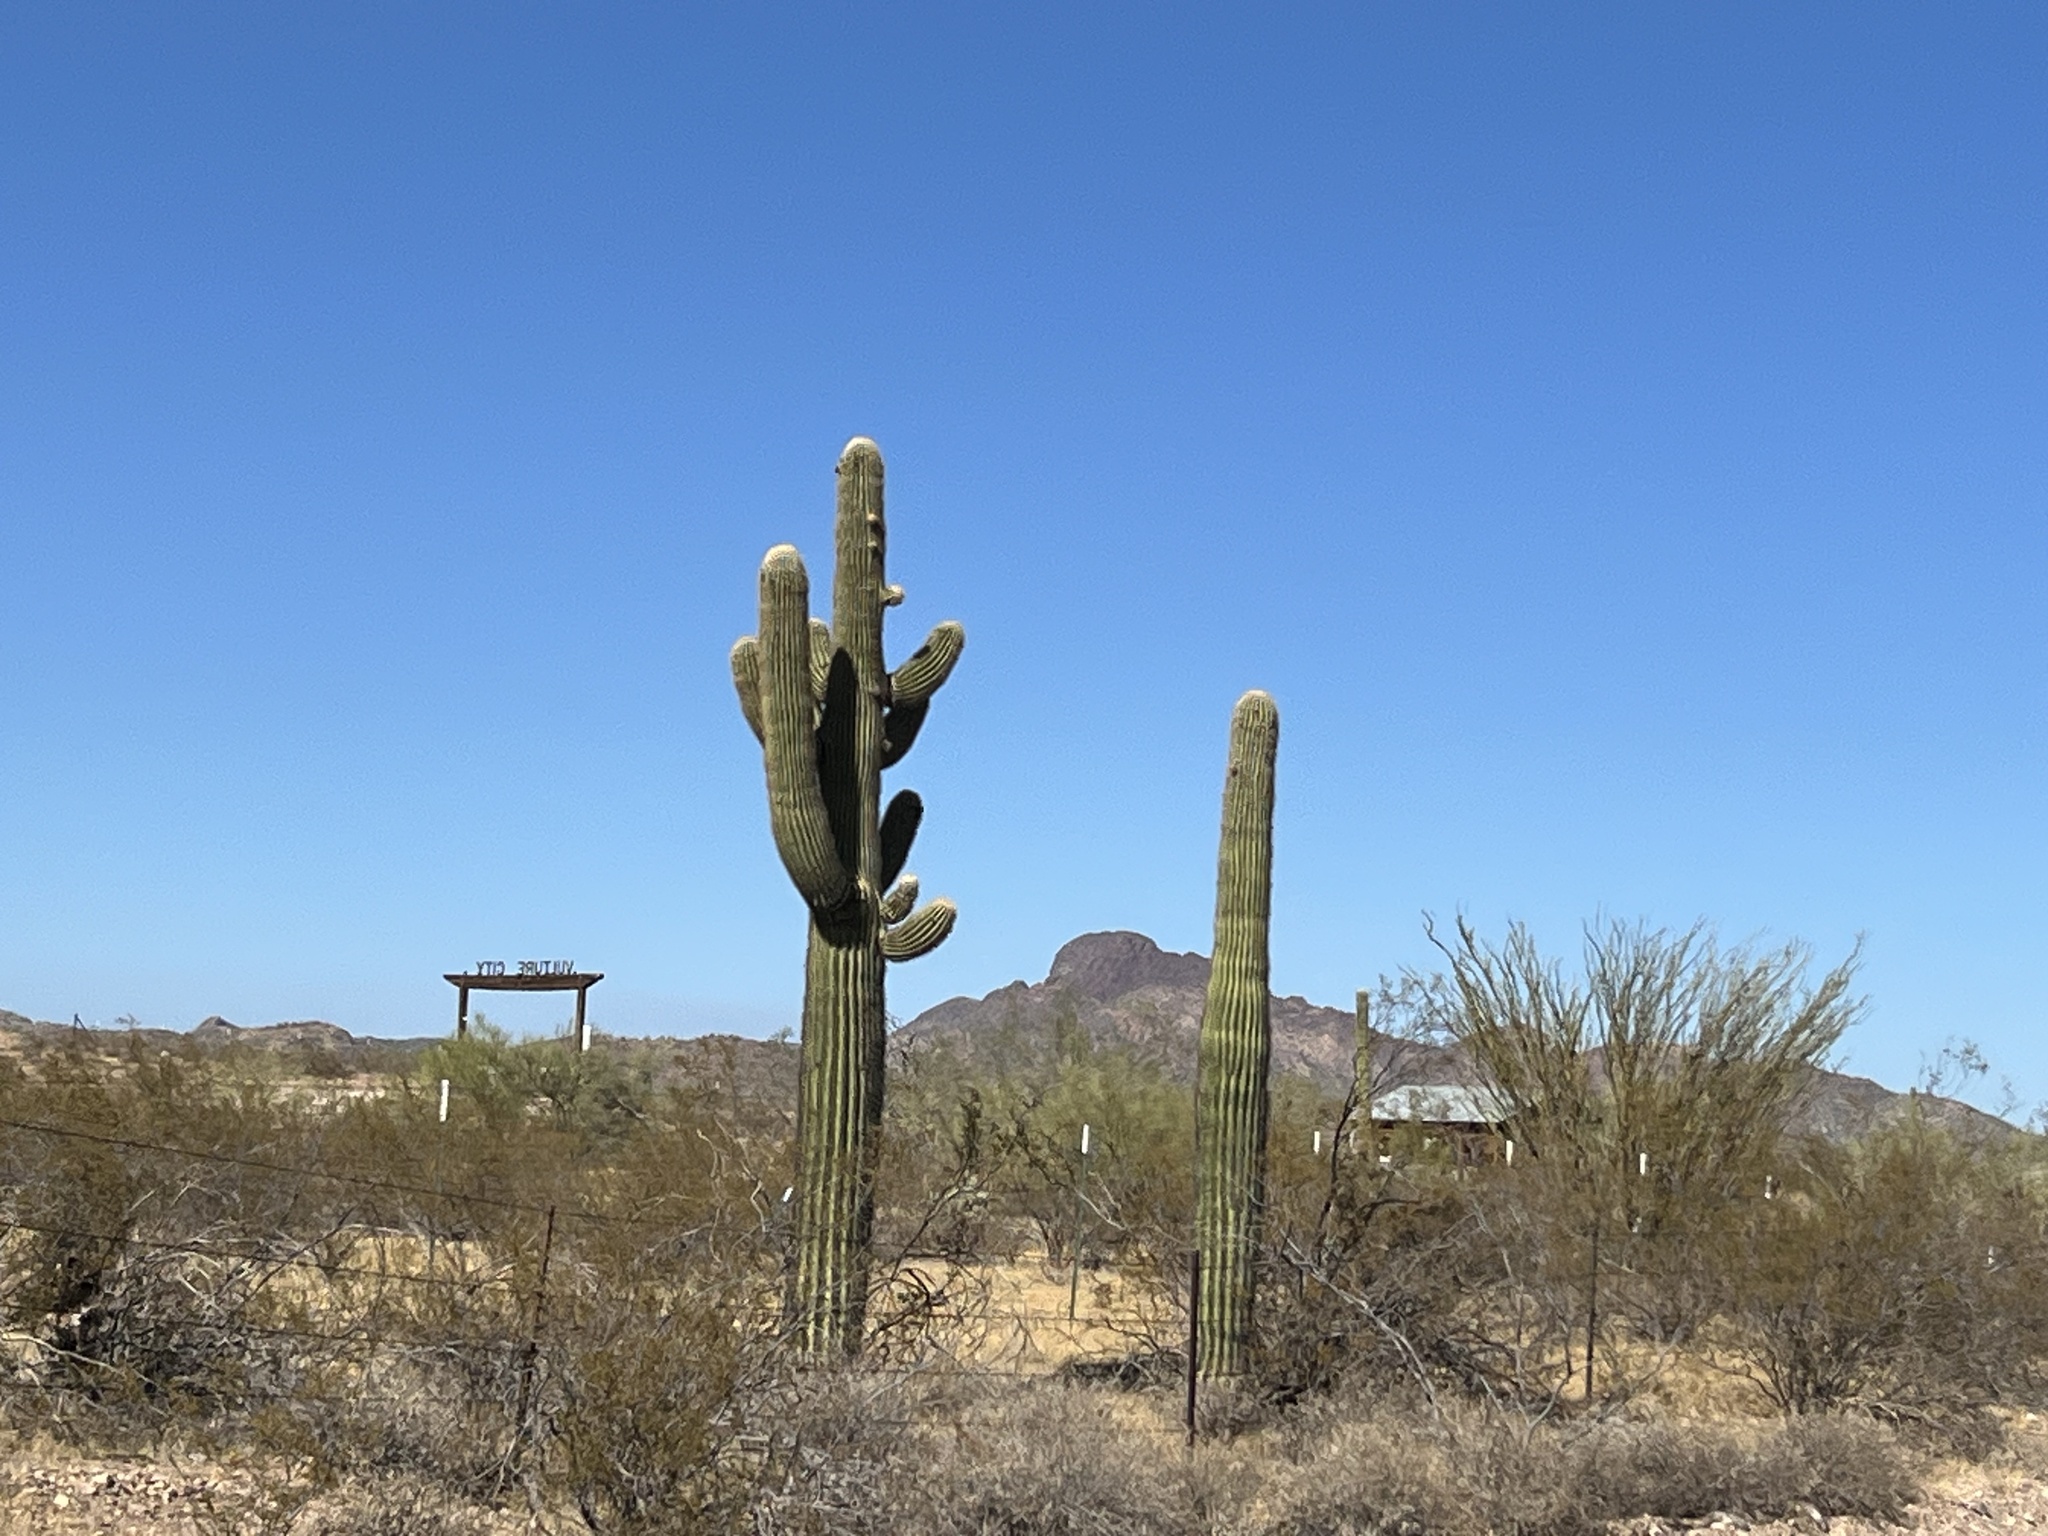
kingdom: Plantae
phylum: Tracheophyta
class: Magnoliopsida
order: Caryophyllales
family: Cactaceae
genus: Carnegiea
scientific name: Carnegiea gigantea
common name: Saguaro
